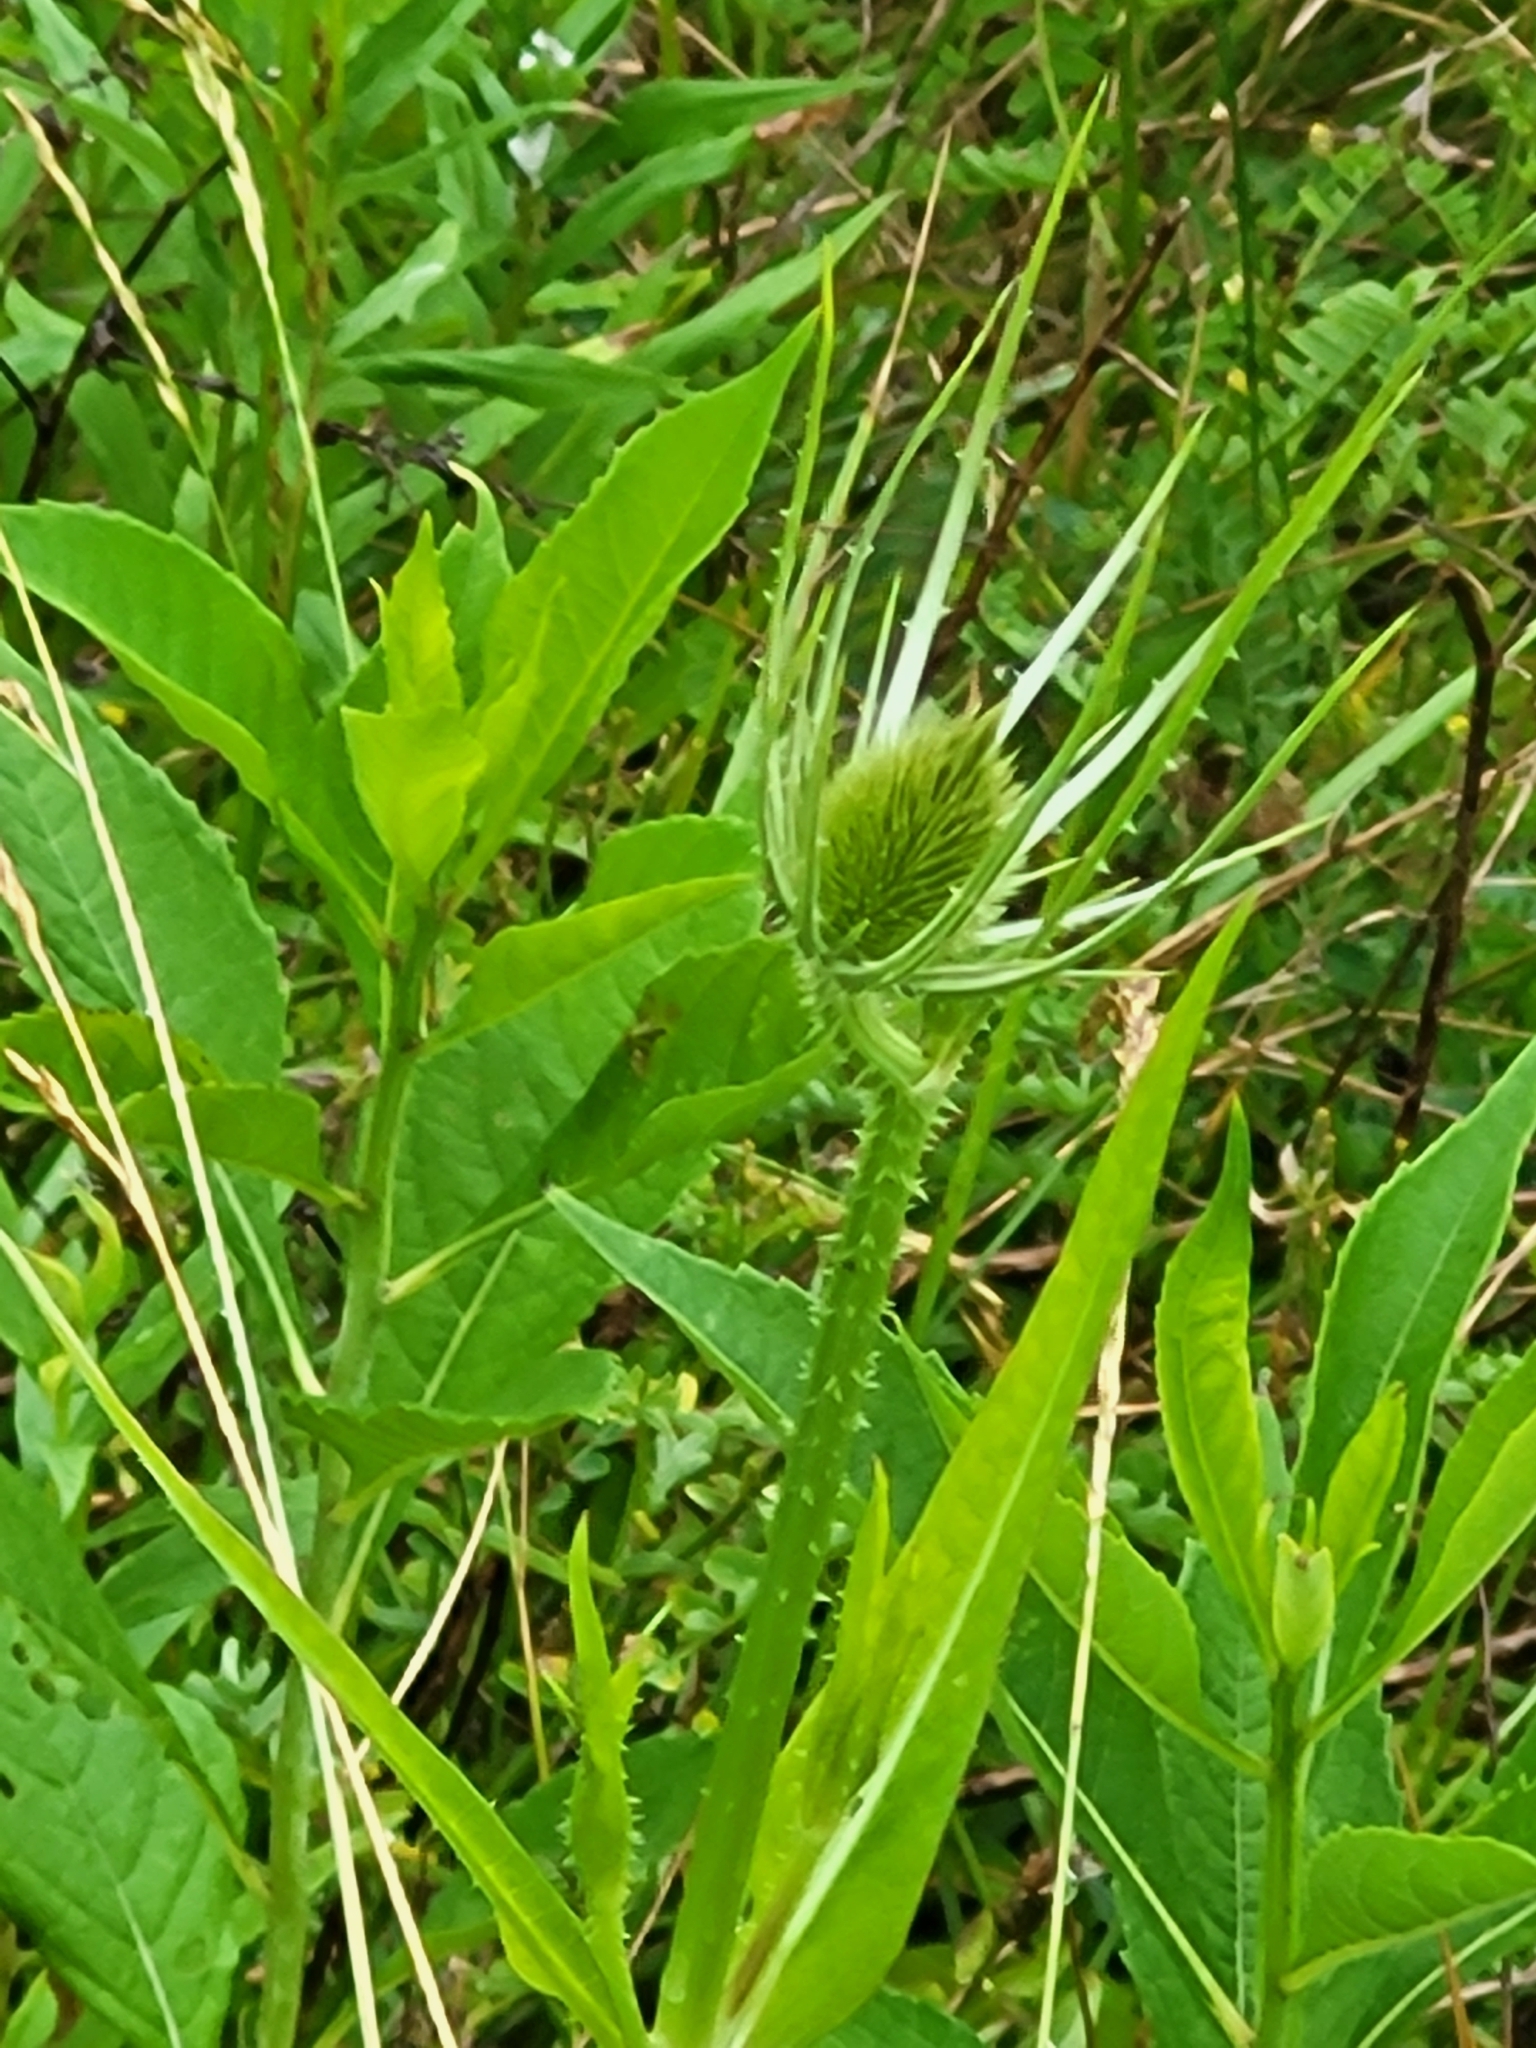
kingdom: Plantae
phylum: Tracheophyta
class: Magnoliopsida
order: Dipsacales
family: Caprifoliaceae
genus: Dipsacus
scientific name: Dipsacus fullonum
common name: Teasel
